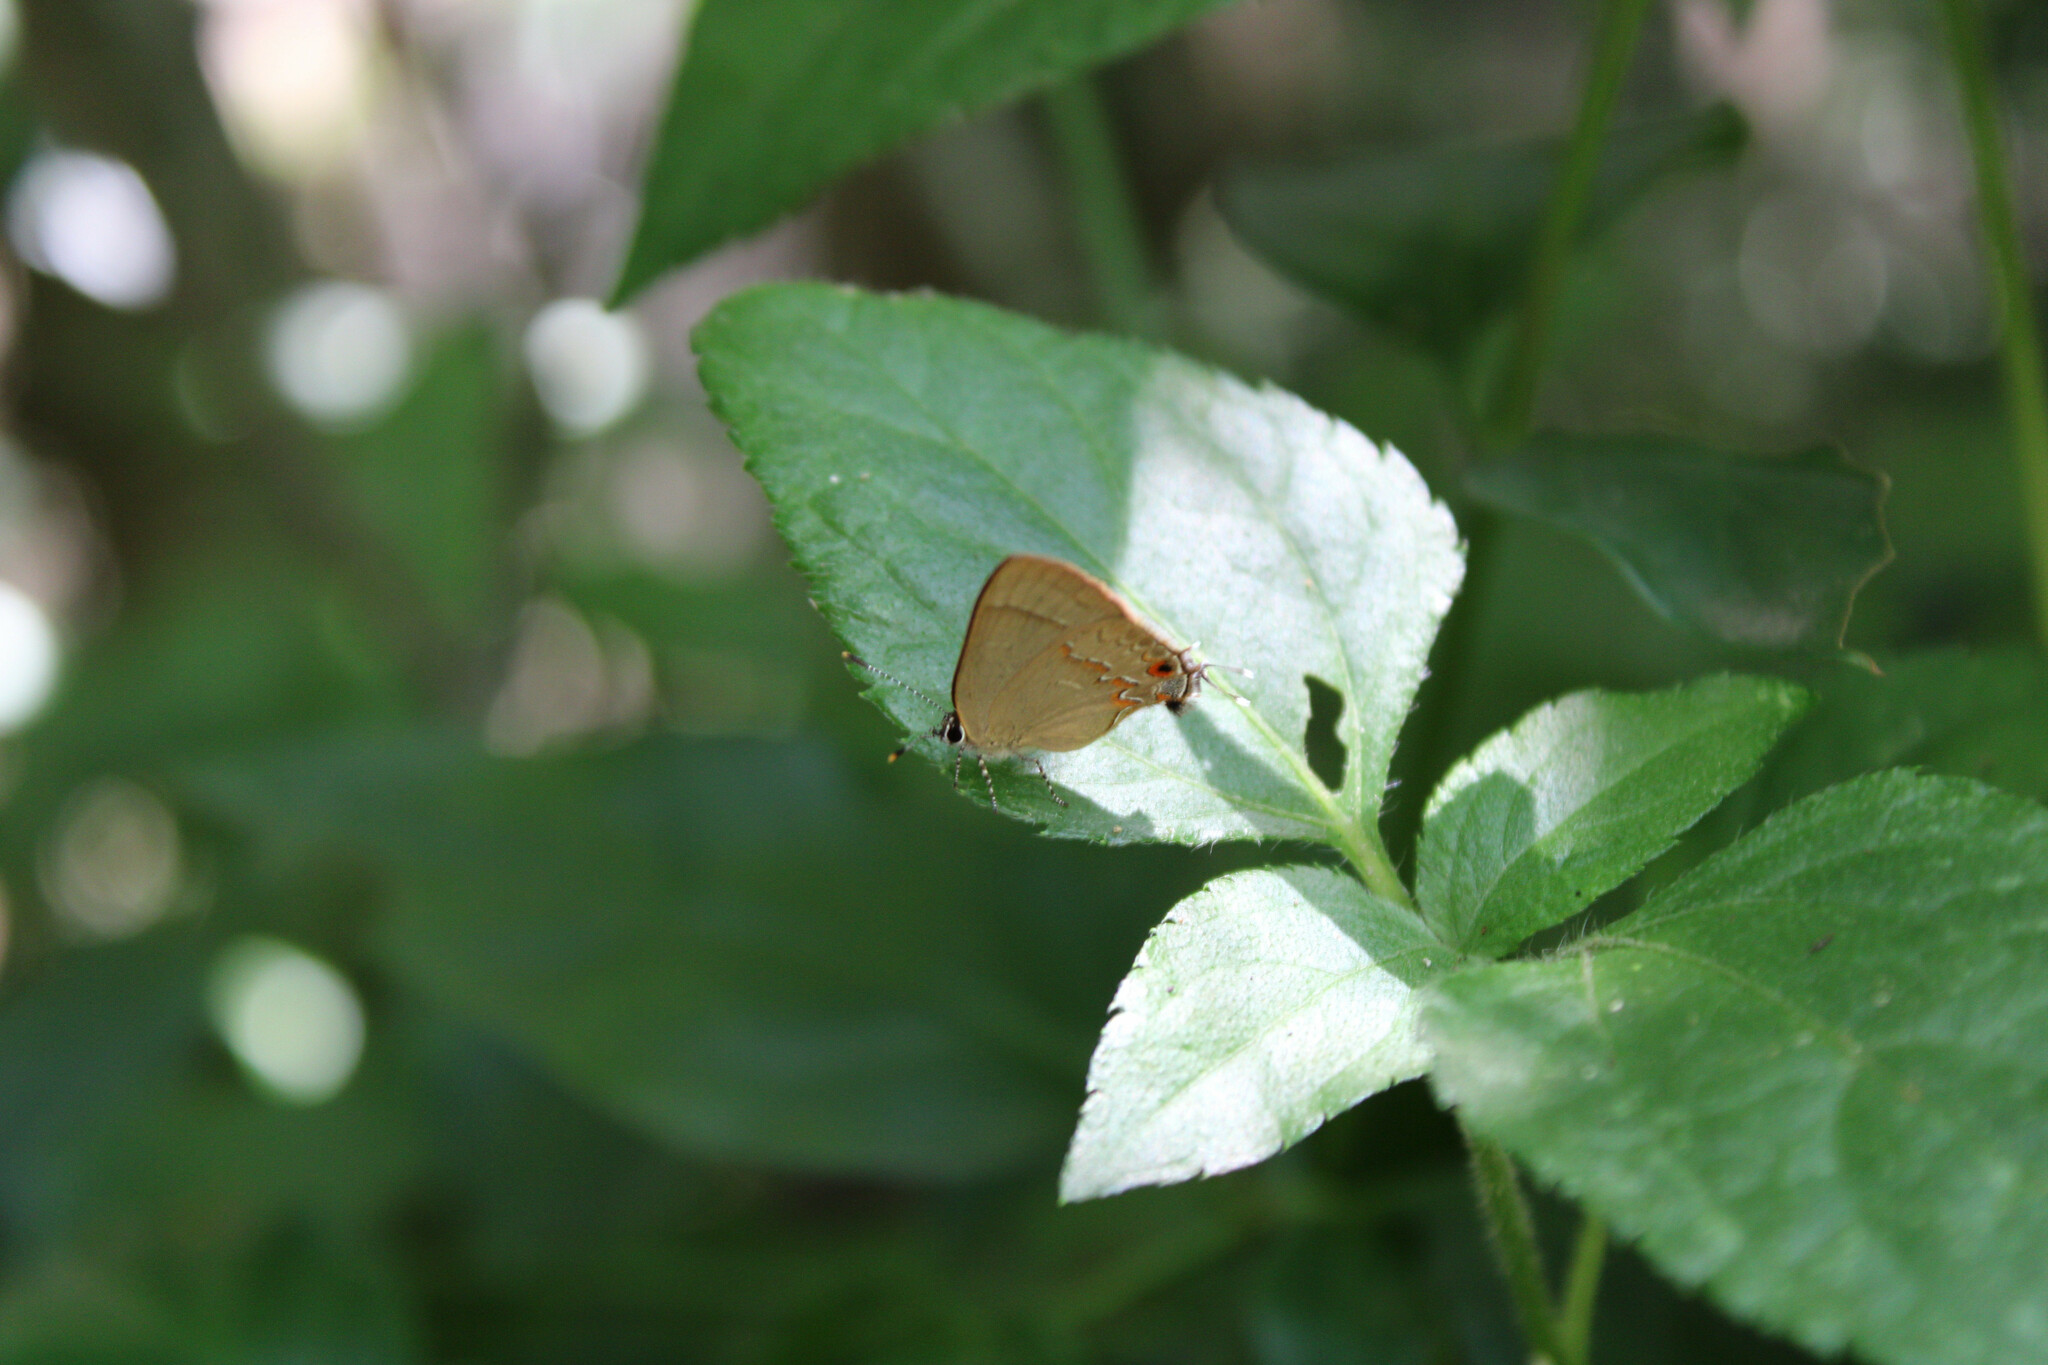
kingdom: Animalia
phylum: Arthropoda
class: Insecta
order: Lepidoptera
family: Lycaenidae
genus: Arzecla
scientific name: Arzecla
